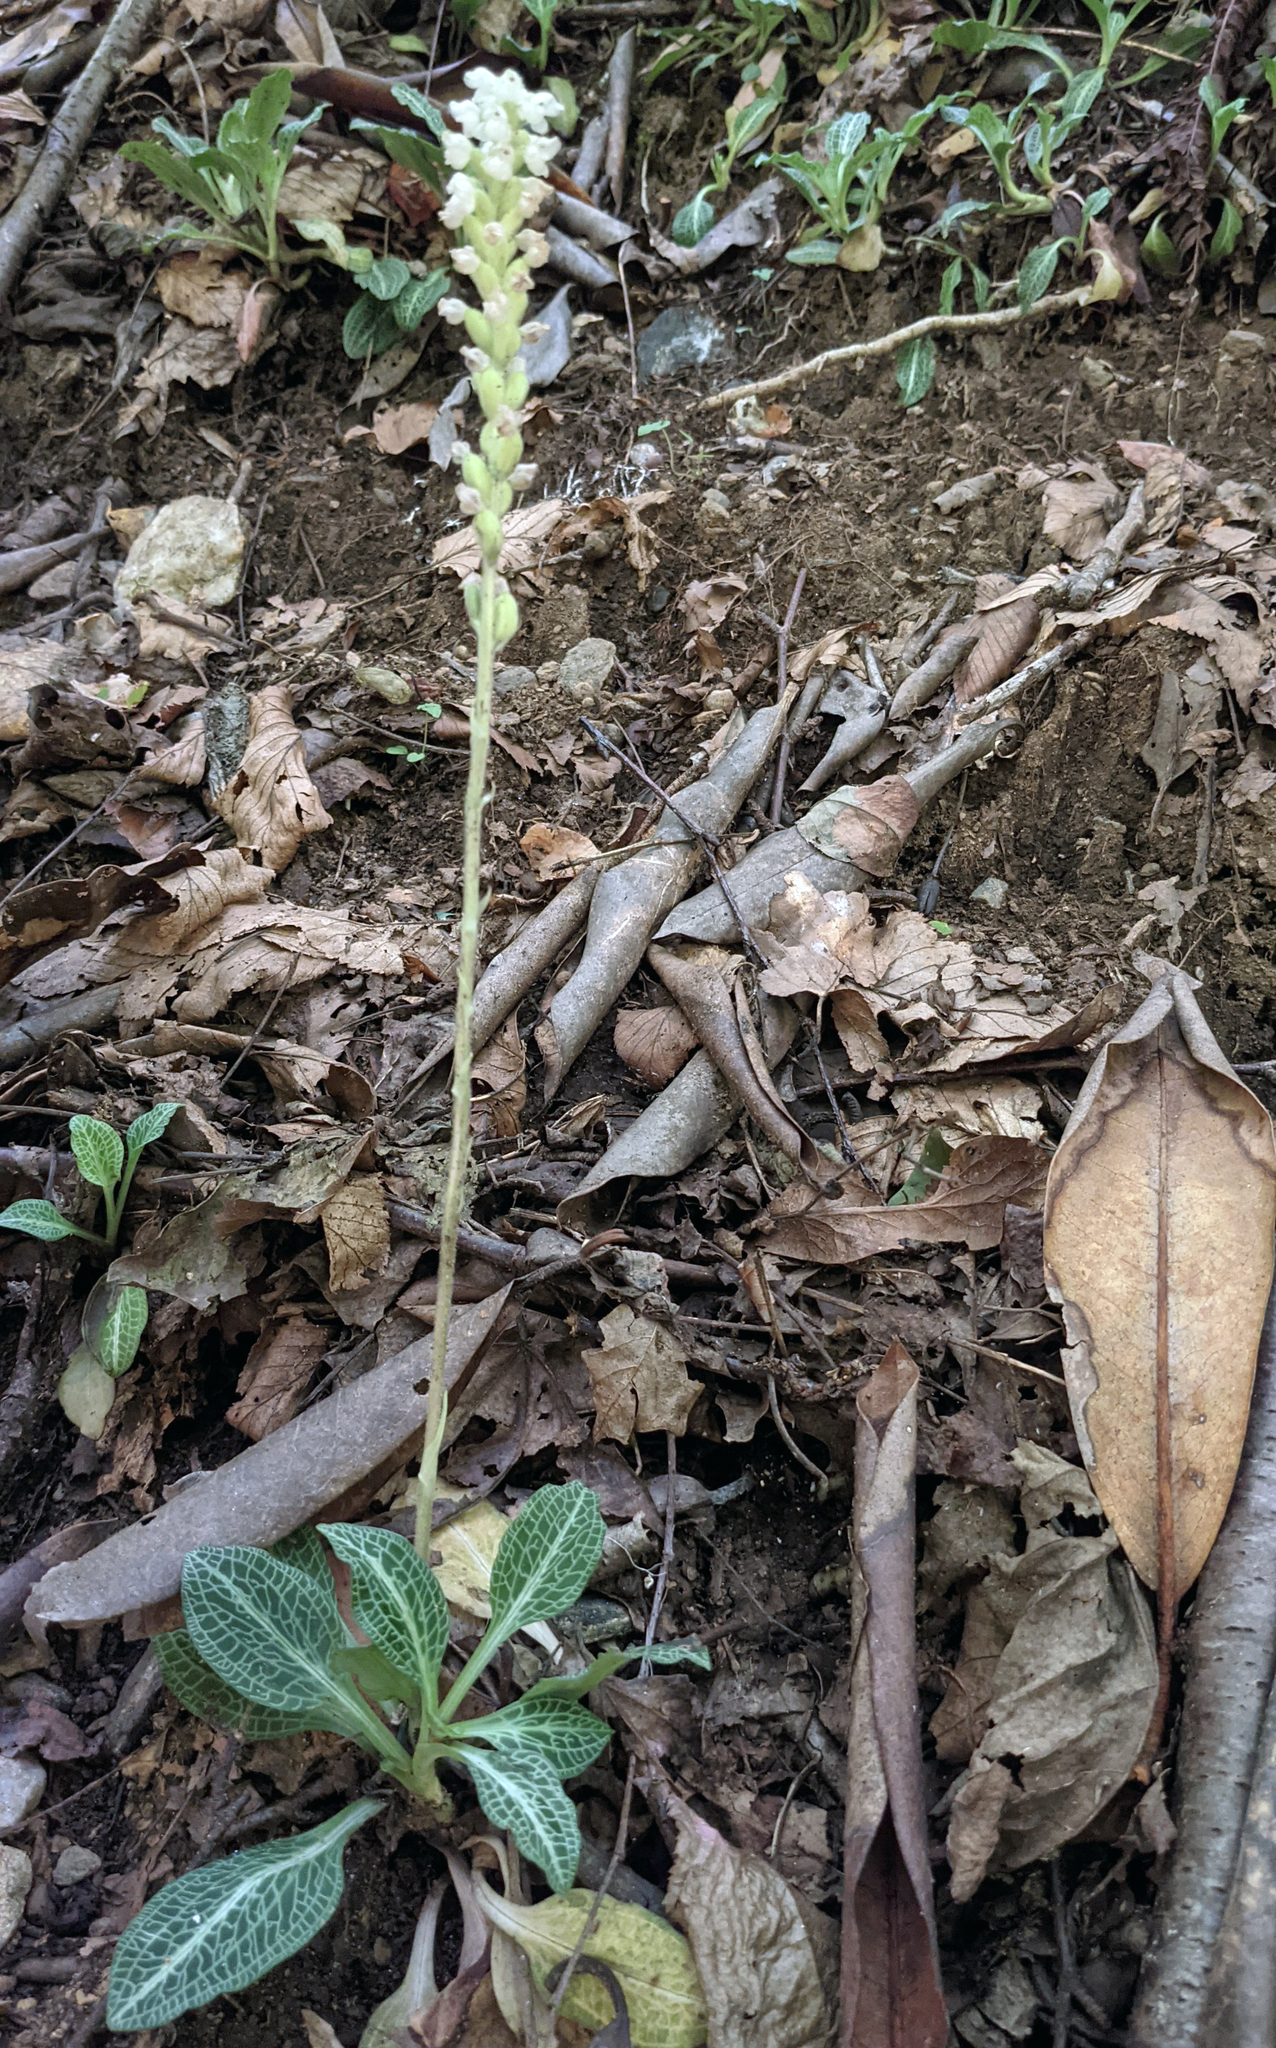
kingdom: Plantae
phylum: Tracheophyta
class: Liliopsida
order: Asparagales
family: Orchidaceae
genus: Goodyera
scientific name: Goodyera pubescens
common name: Downy rattlesnake-plantain
